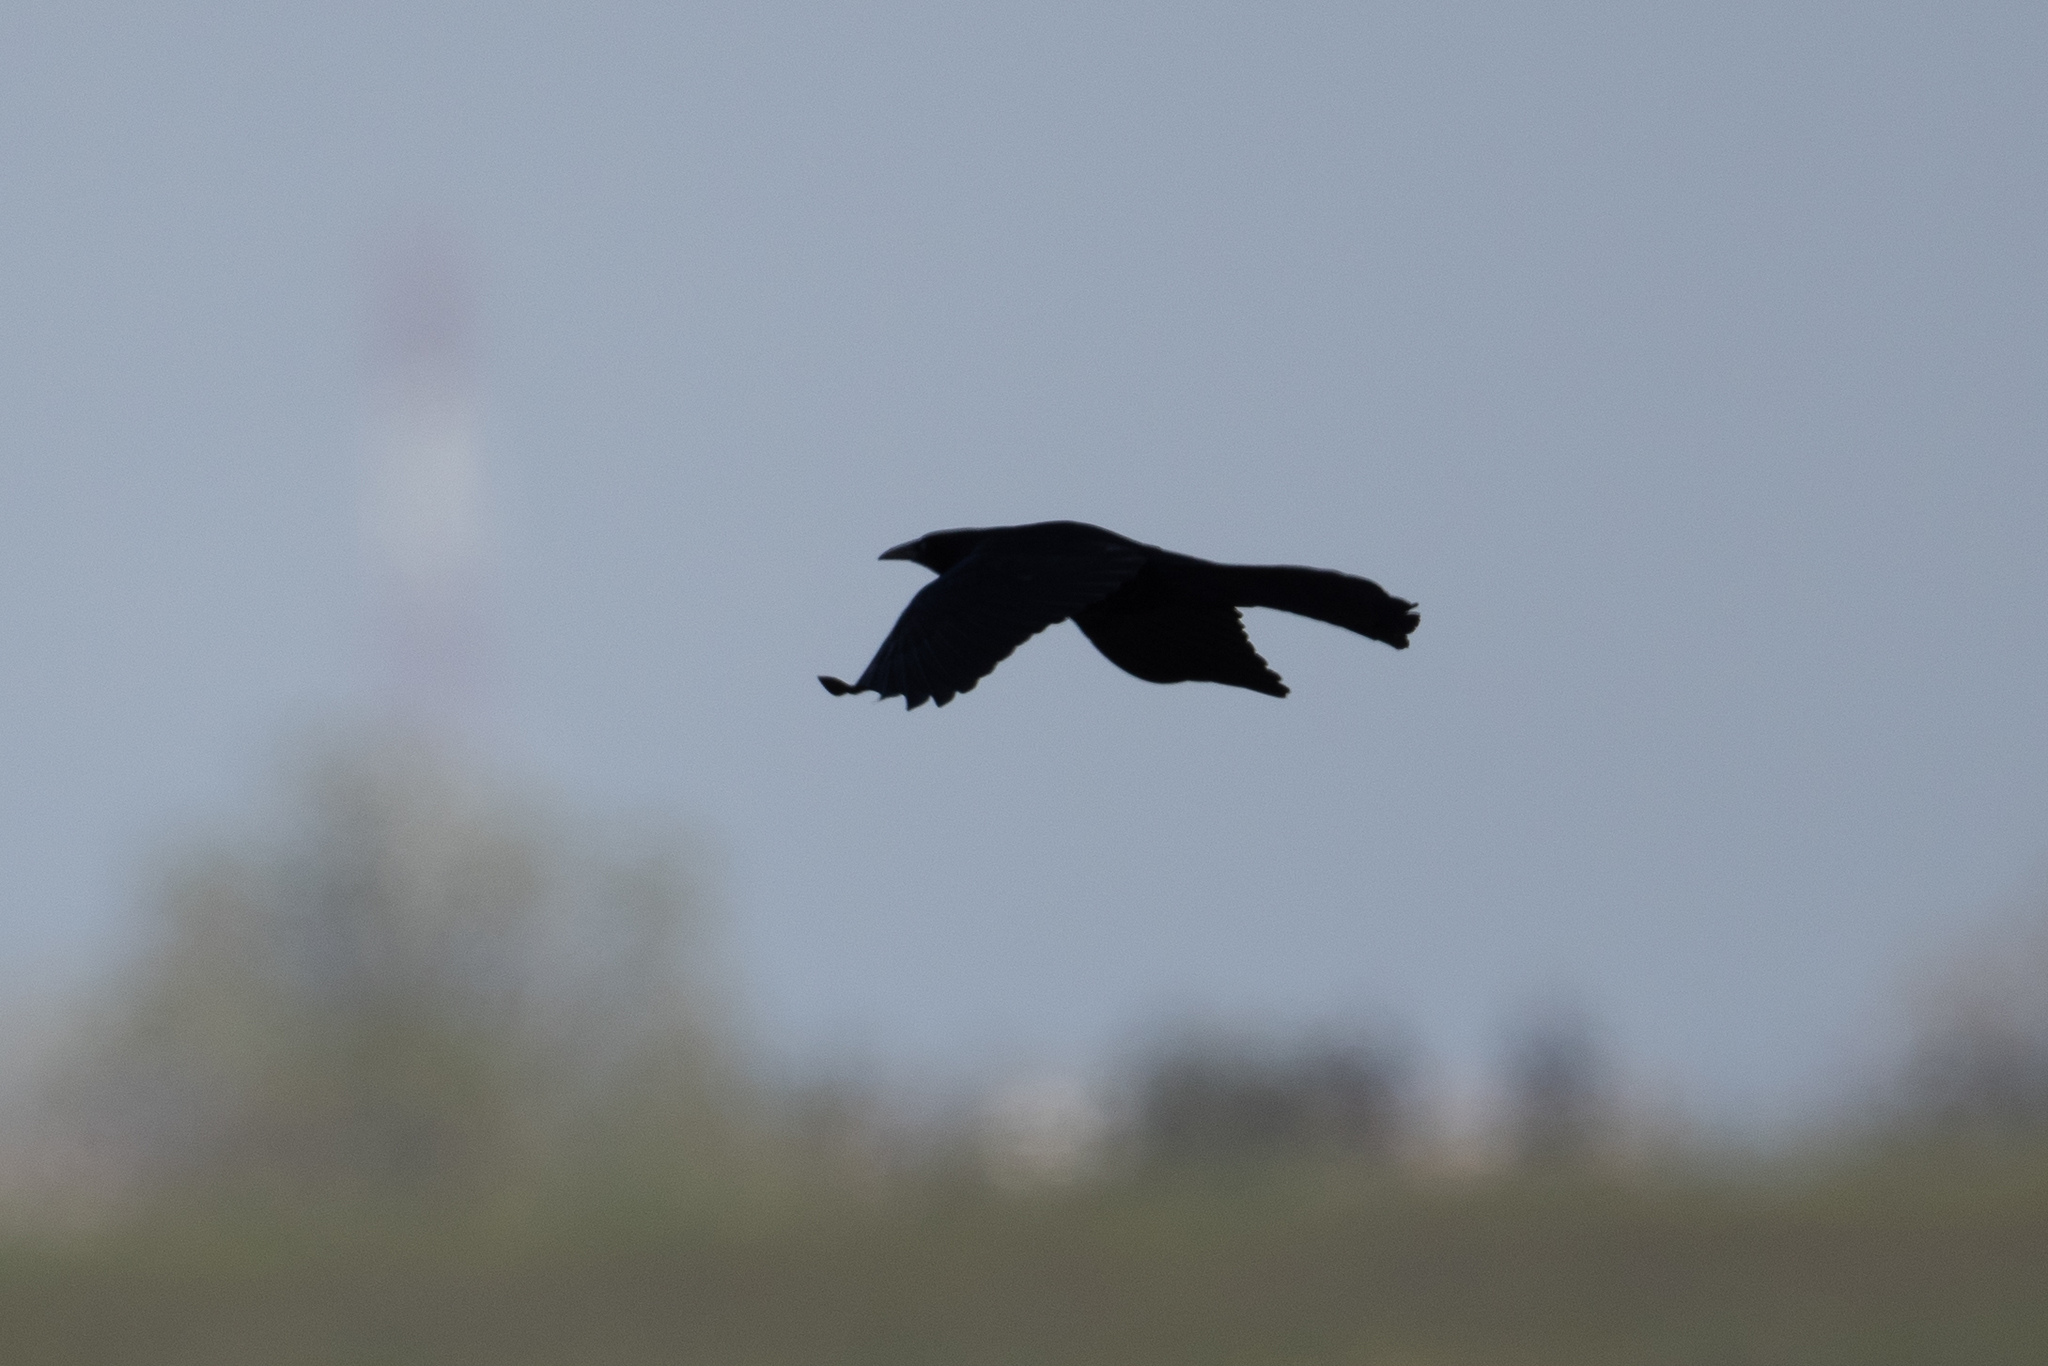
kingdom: Animalia
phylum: Chordata
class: Aves
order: Passeriformes
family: Icteridae
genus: Quiscalus
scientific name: Quiscalus mexicanus
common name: Great-tailed grackle
